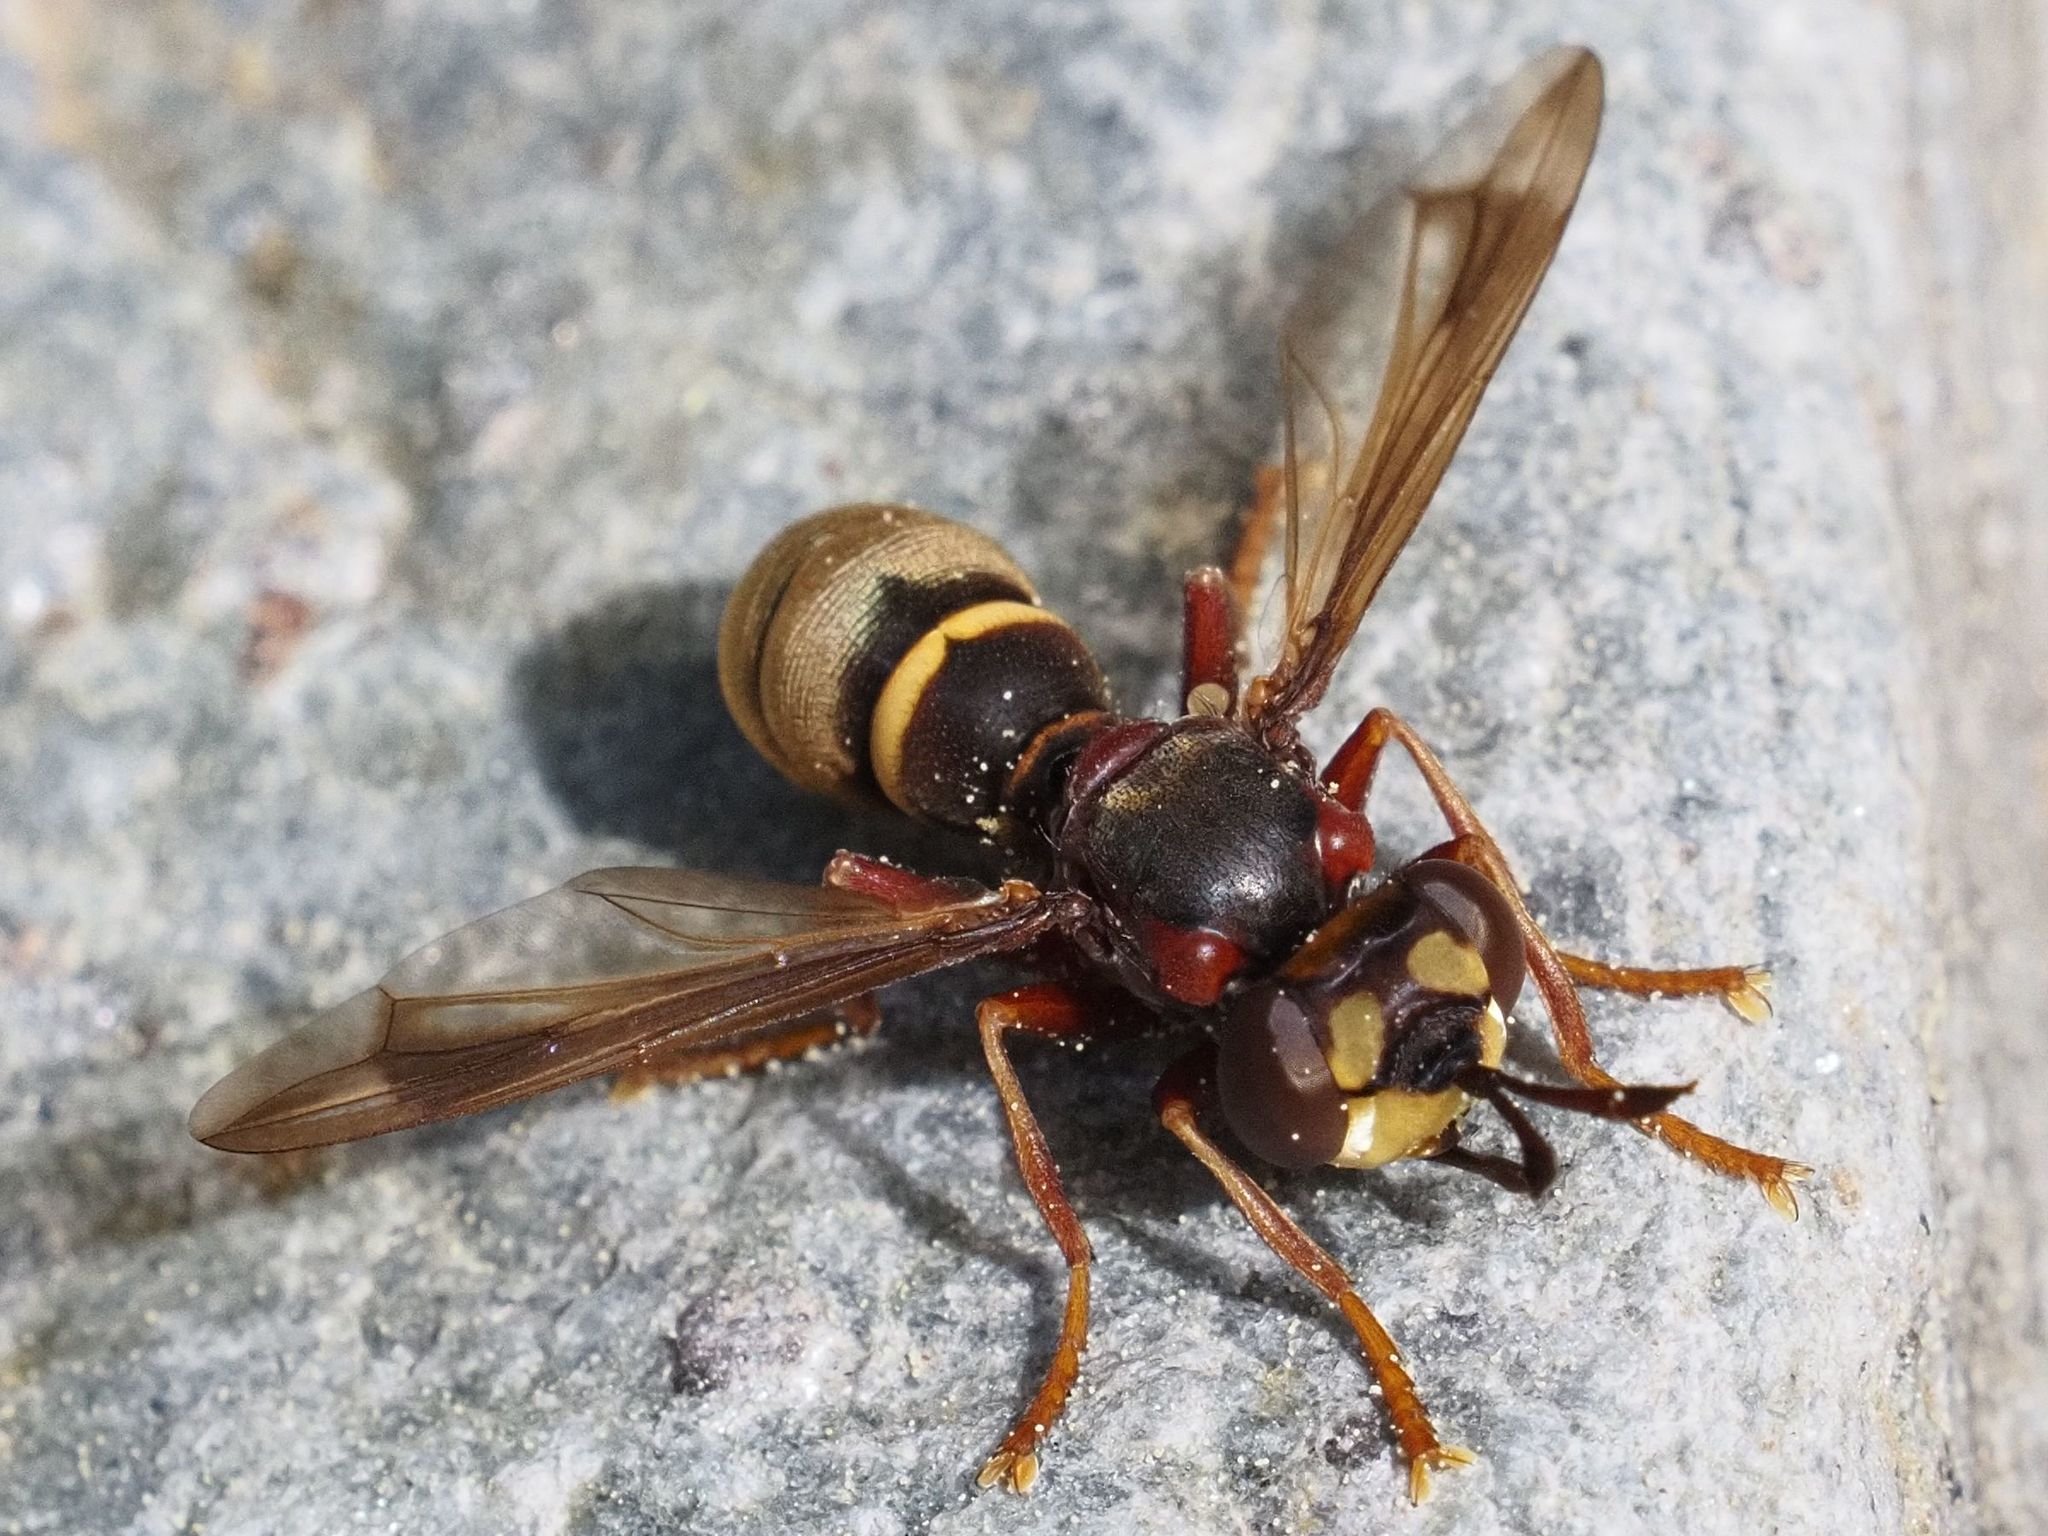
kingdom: Animalia
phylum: Arthropoda
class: Insecta
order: Diptera
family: Conopidae
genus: Conops
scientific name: Conops vesicularis
